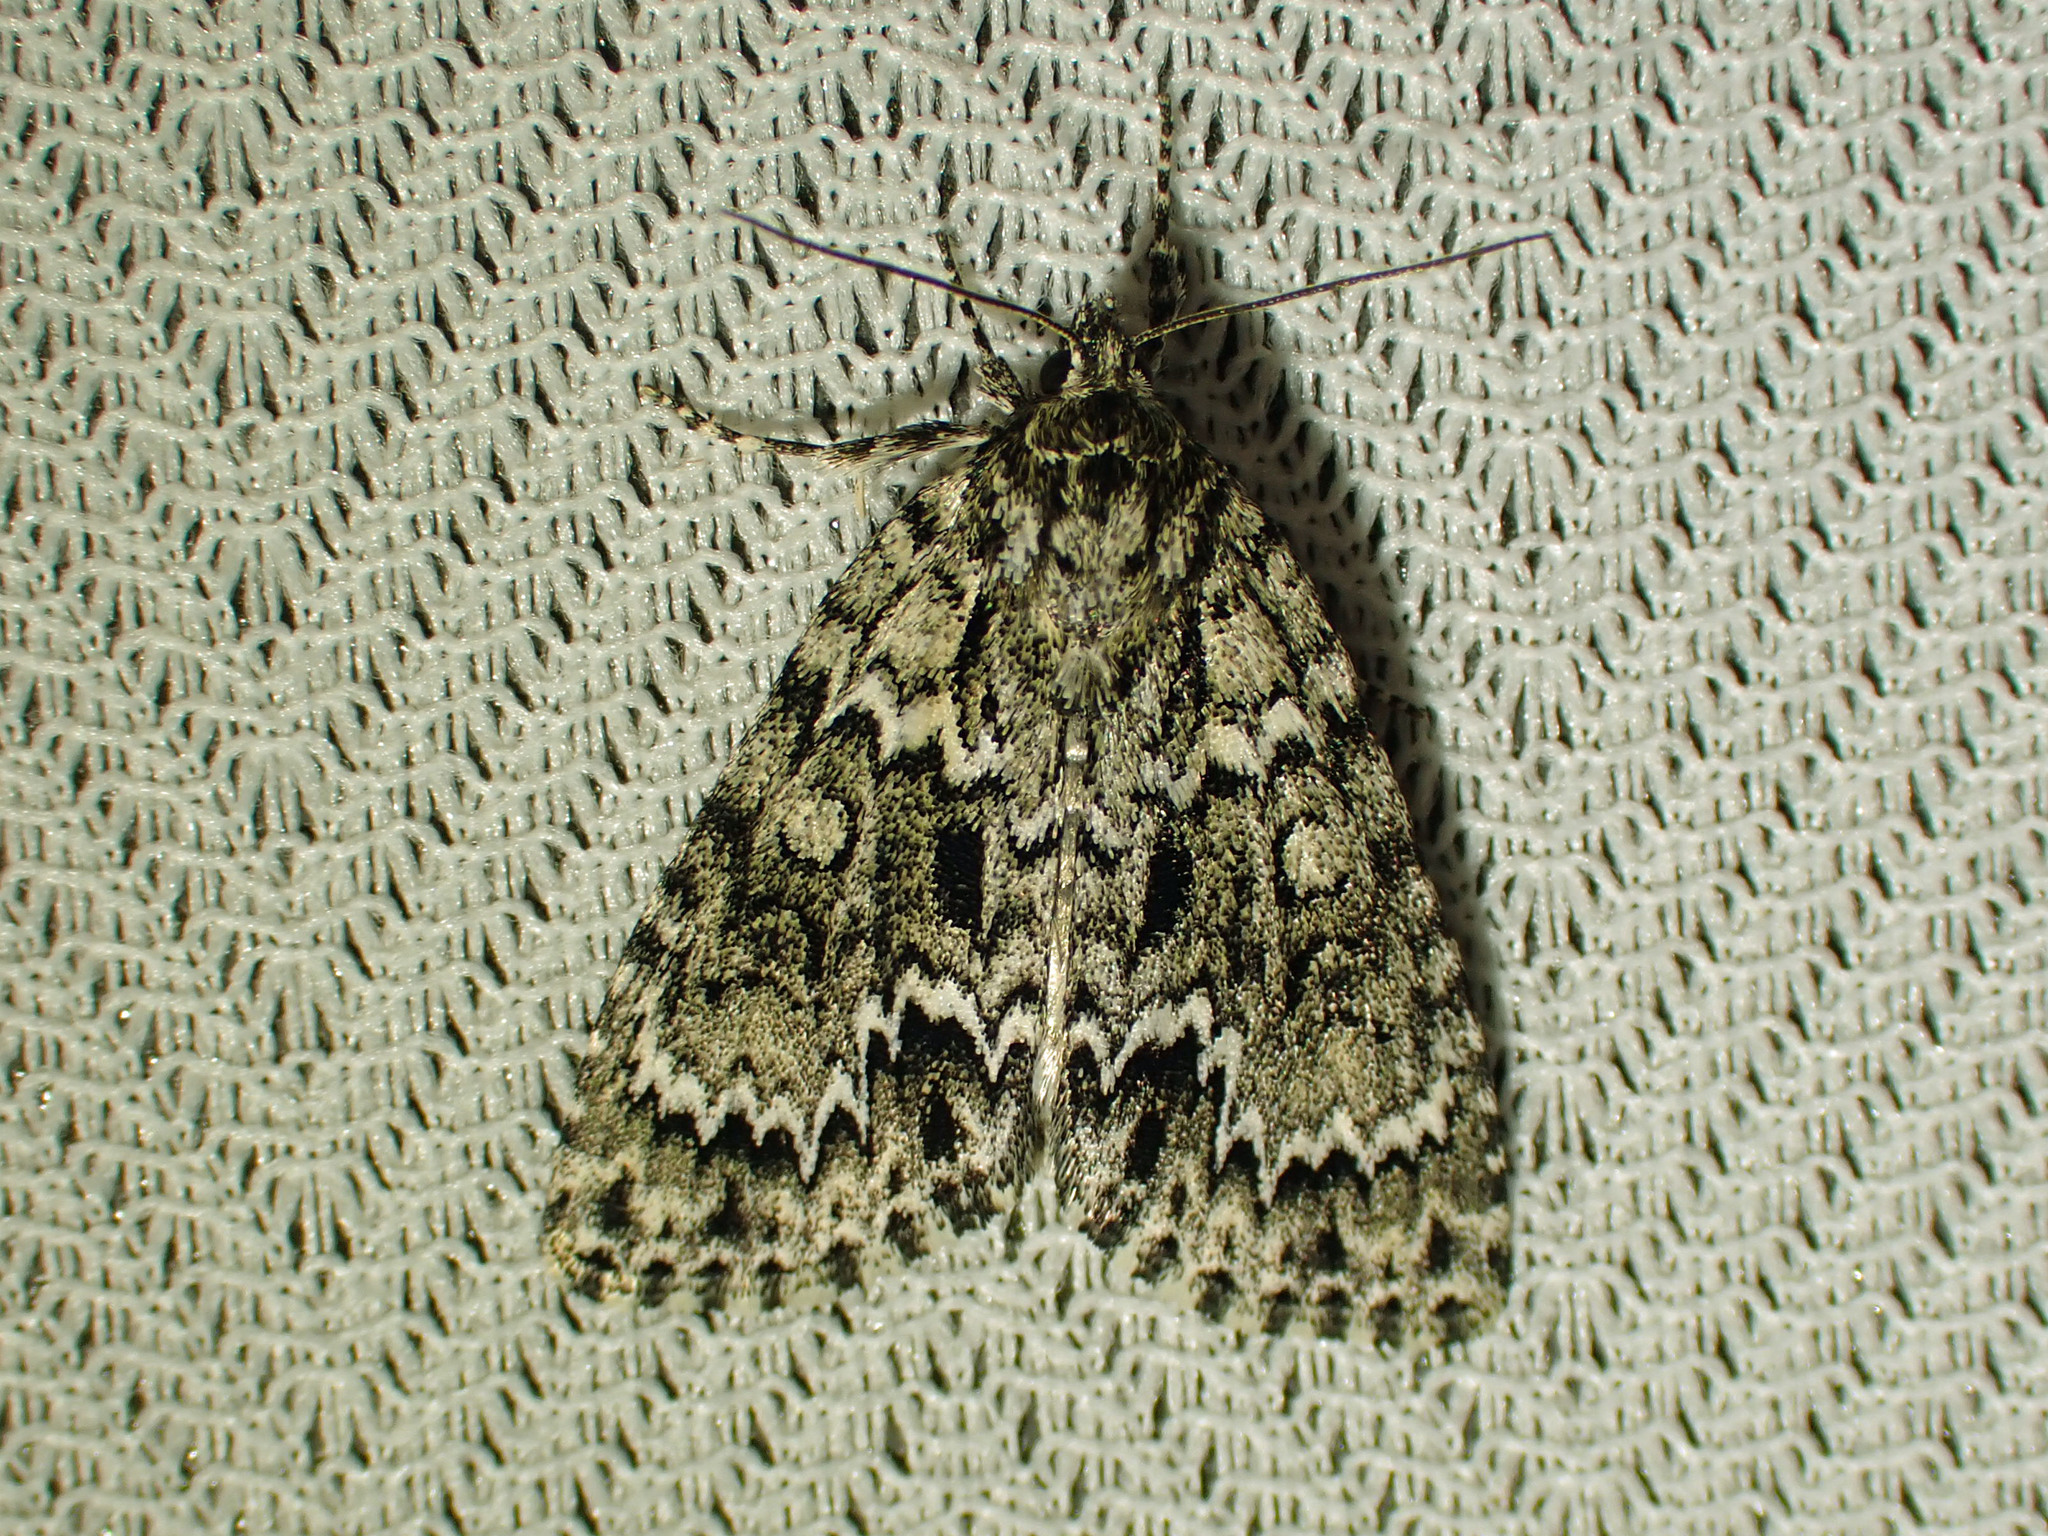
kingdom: Animalia
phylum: Arthropoda
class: Insecta
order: Lepidoptera
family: Noctuidae
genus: Acronicta
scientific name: Acronicta fragilis
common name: Fragile dagger
